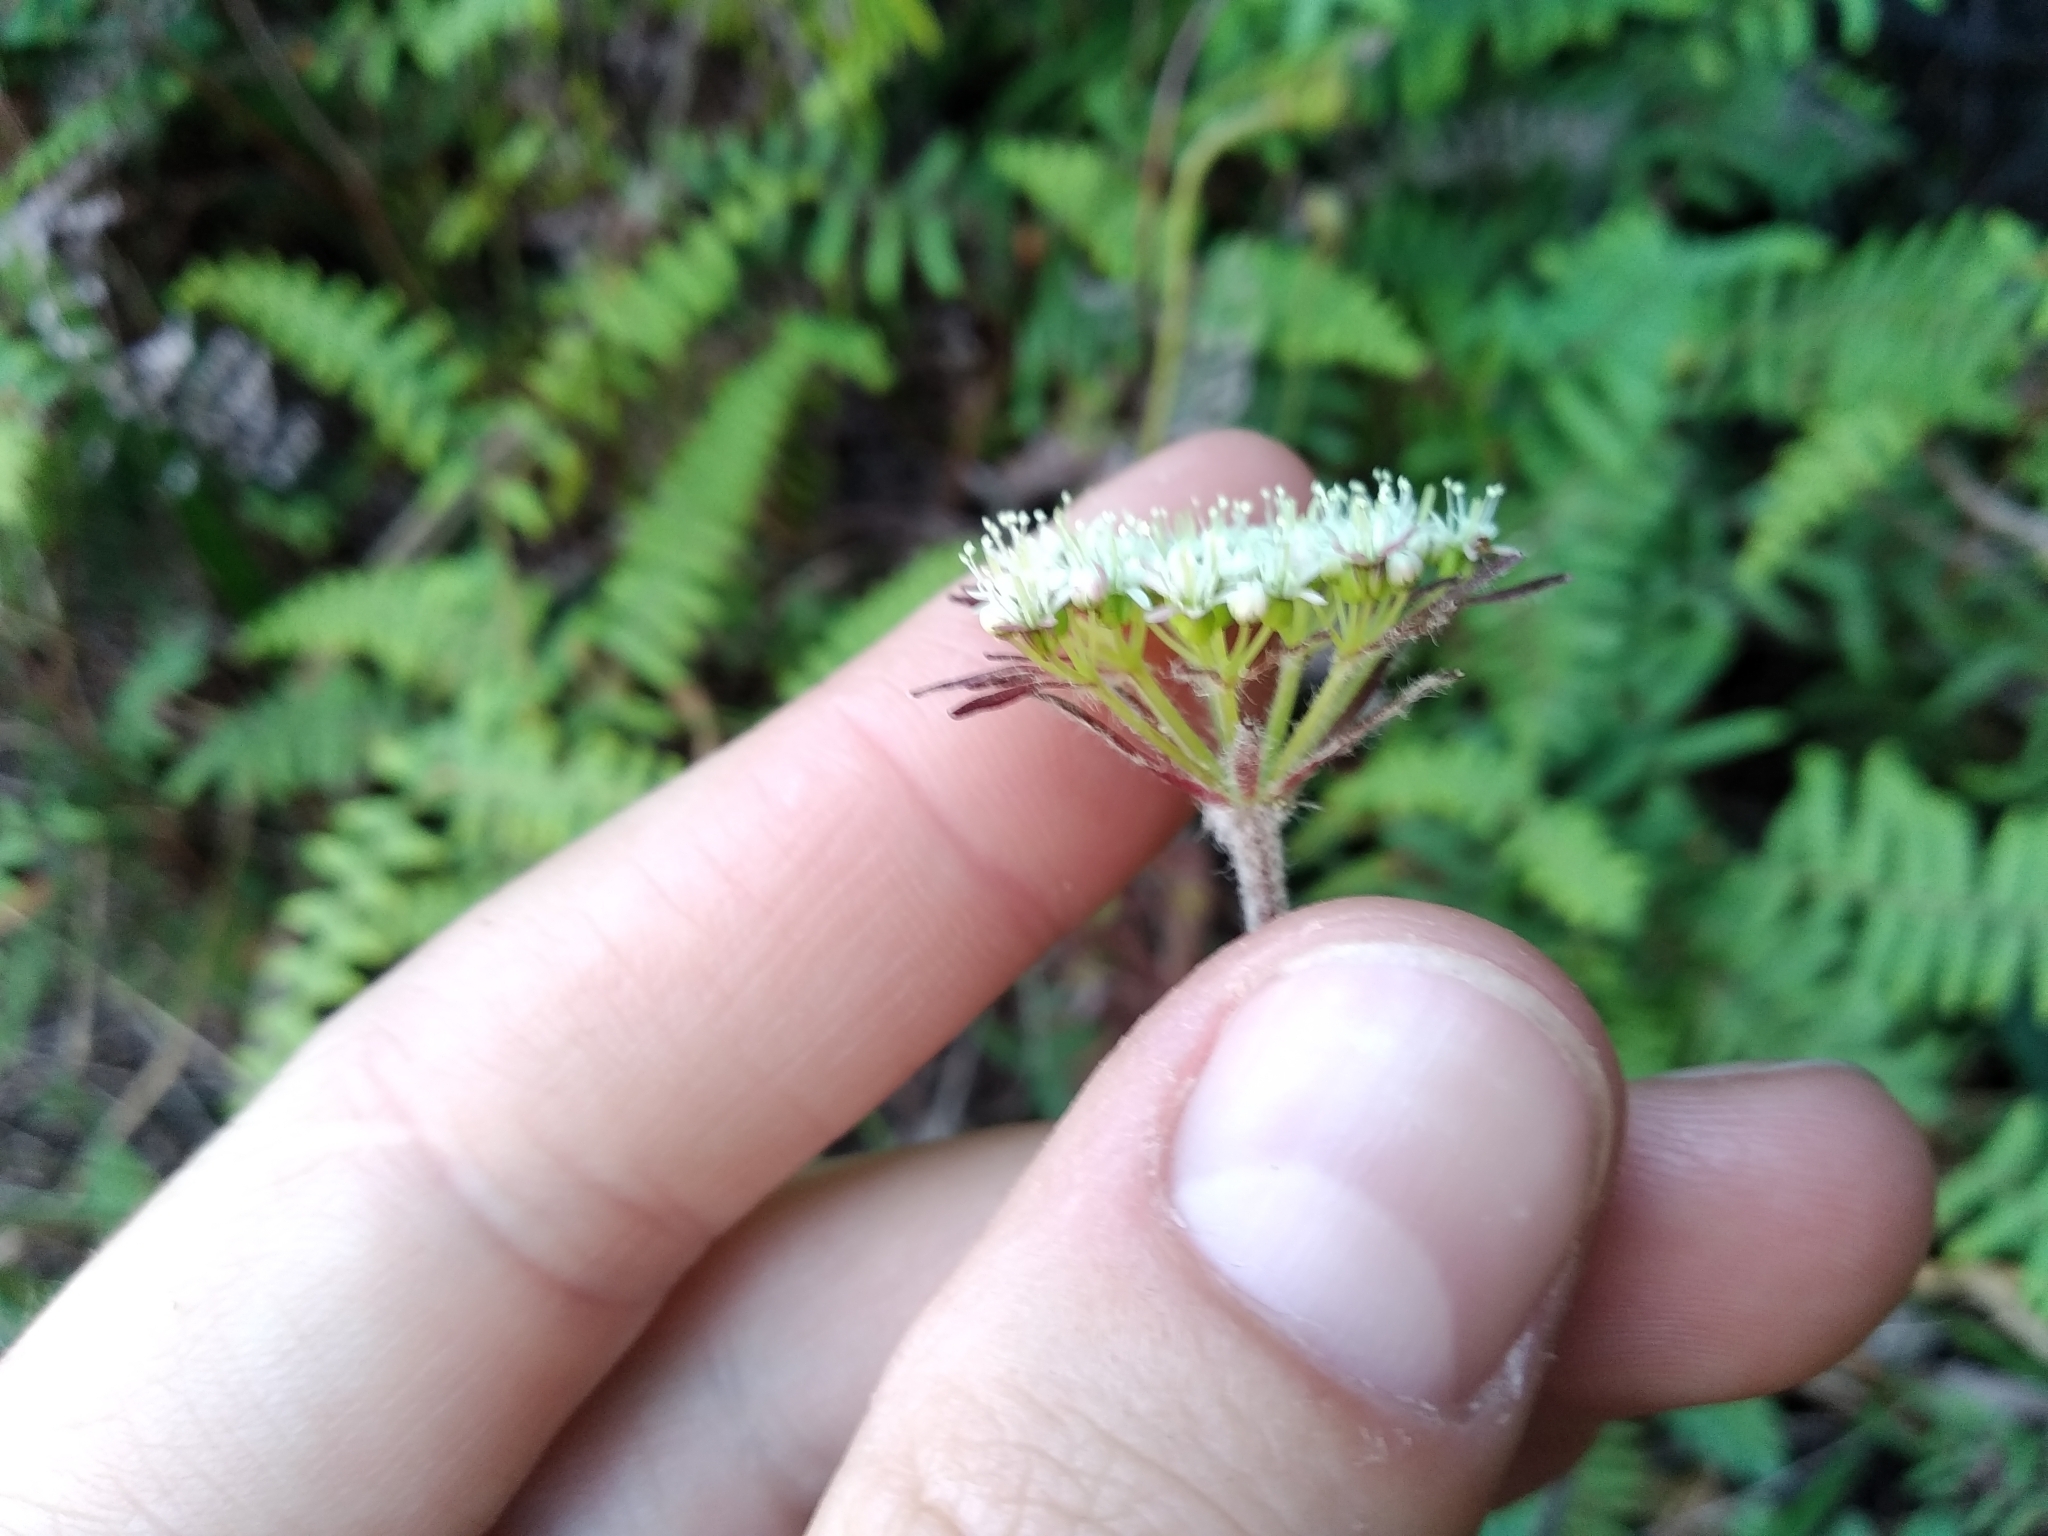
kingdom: Plantae
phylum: Tracheophyta
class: Magnoliopsida
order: Apiales
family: Apiaceae
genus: Hermas
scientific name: Hermas capitata
